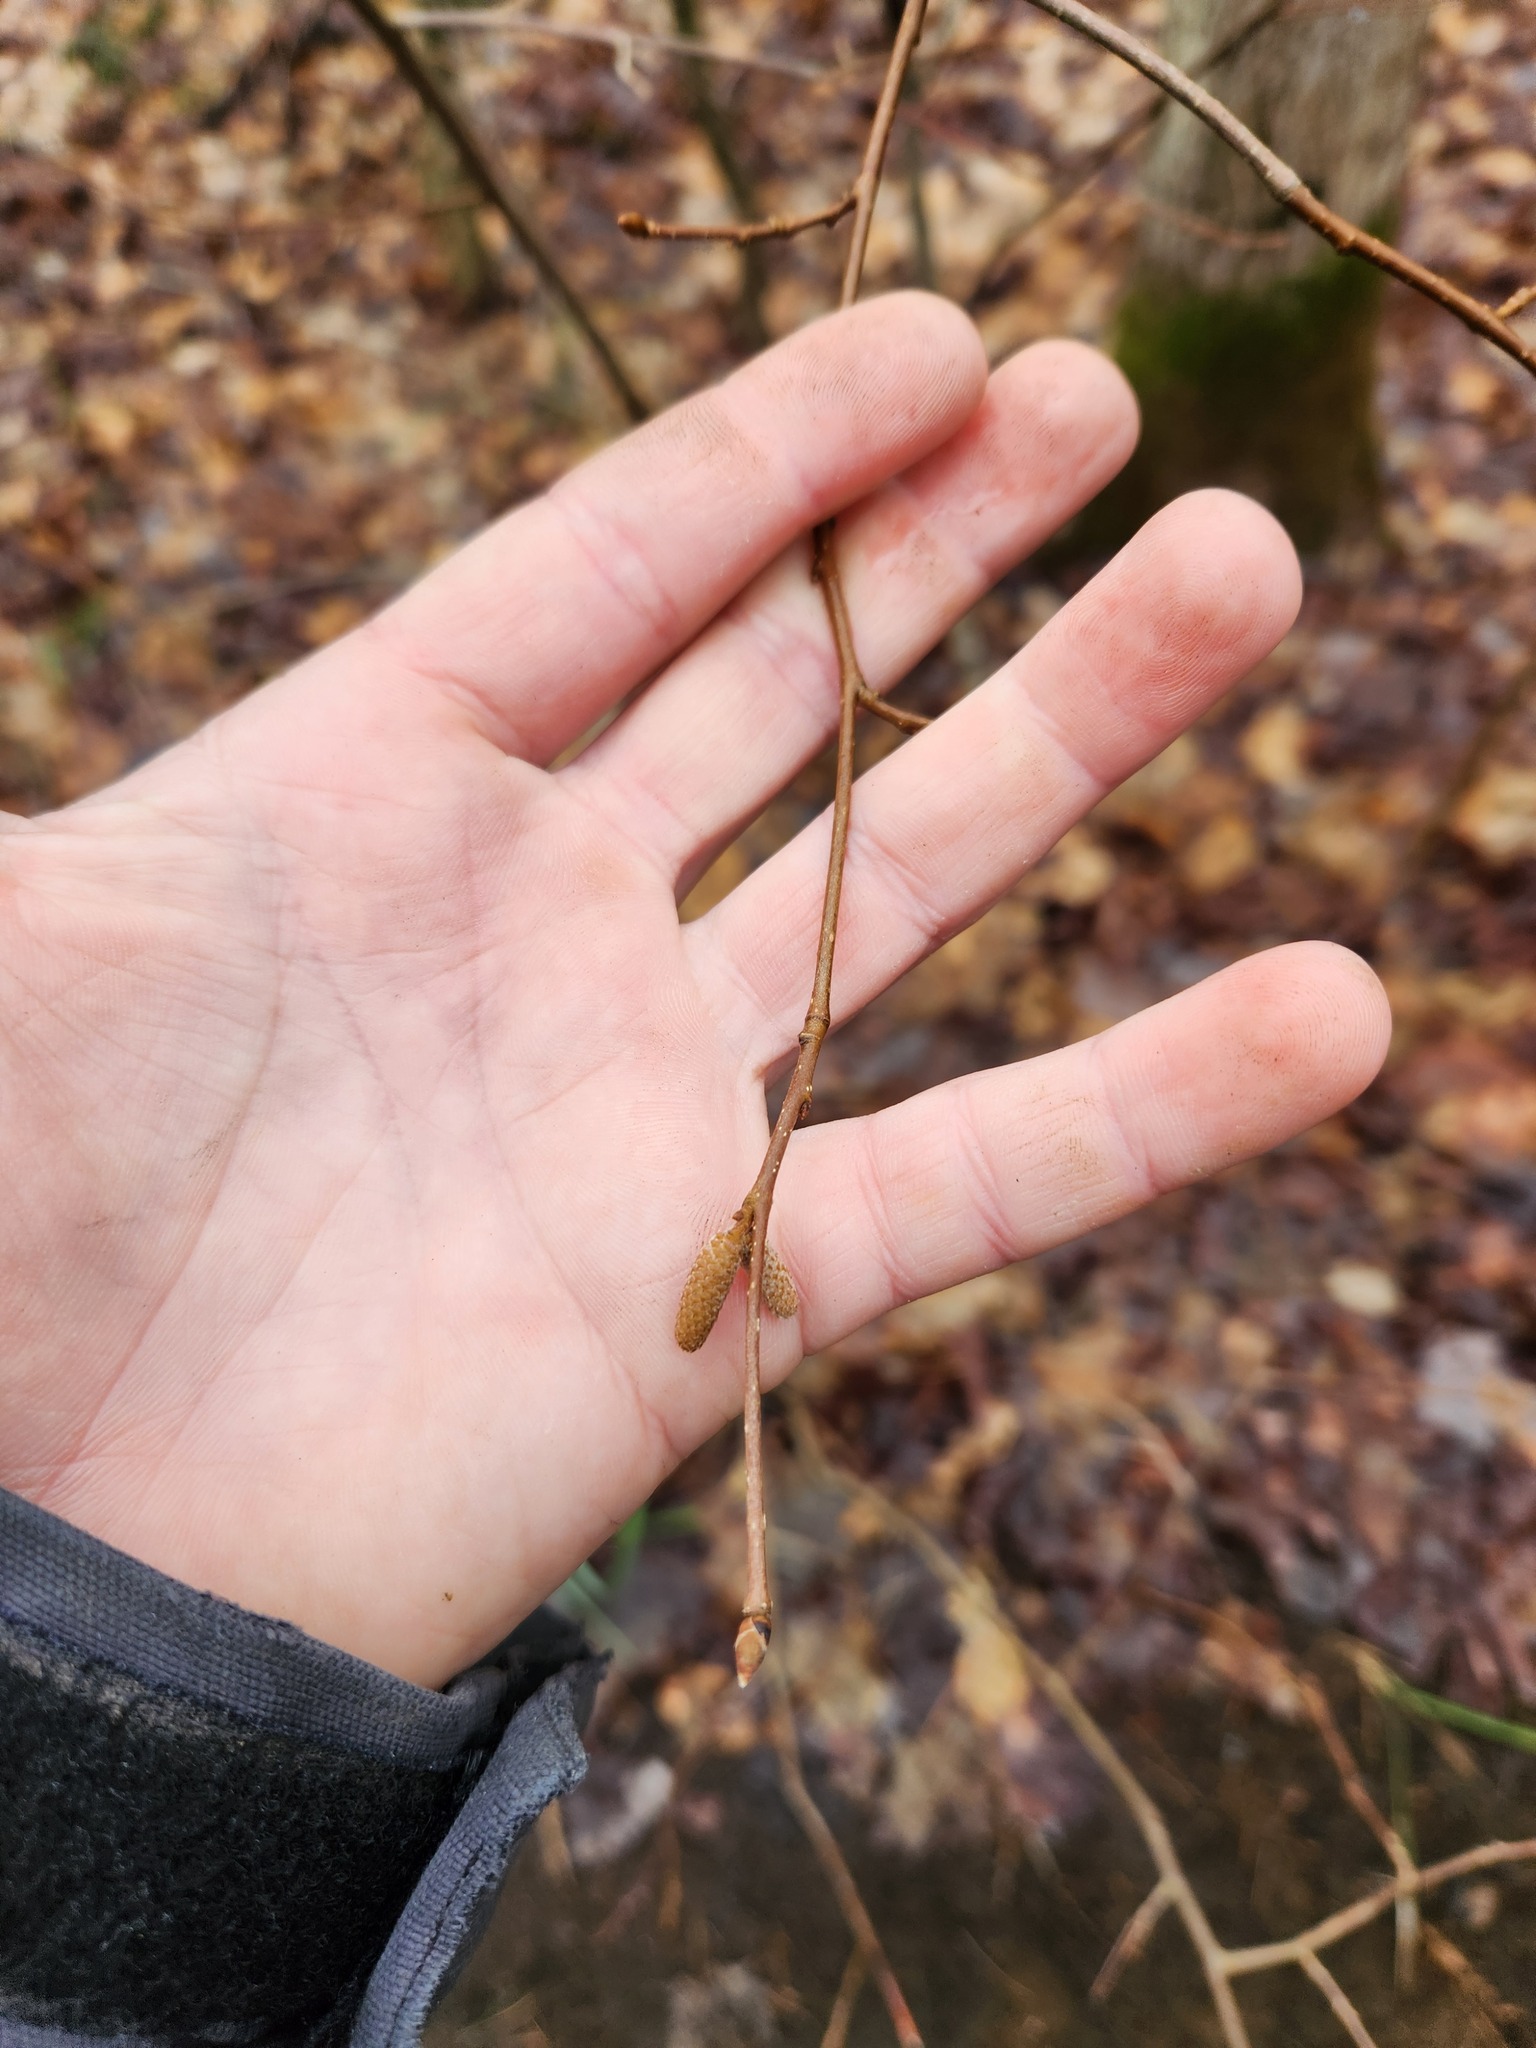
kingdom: Plantae
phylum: Tracheophyta
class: Magnoliopsida
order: Fagales
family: Betulaceae
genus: Corylus
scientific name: Corylus cornuta
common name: Beaked hazel
